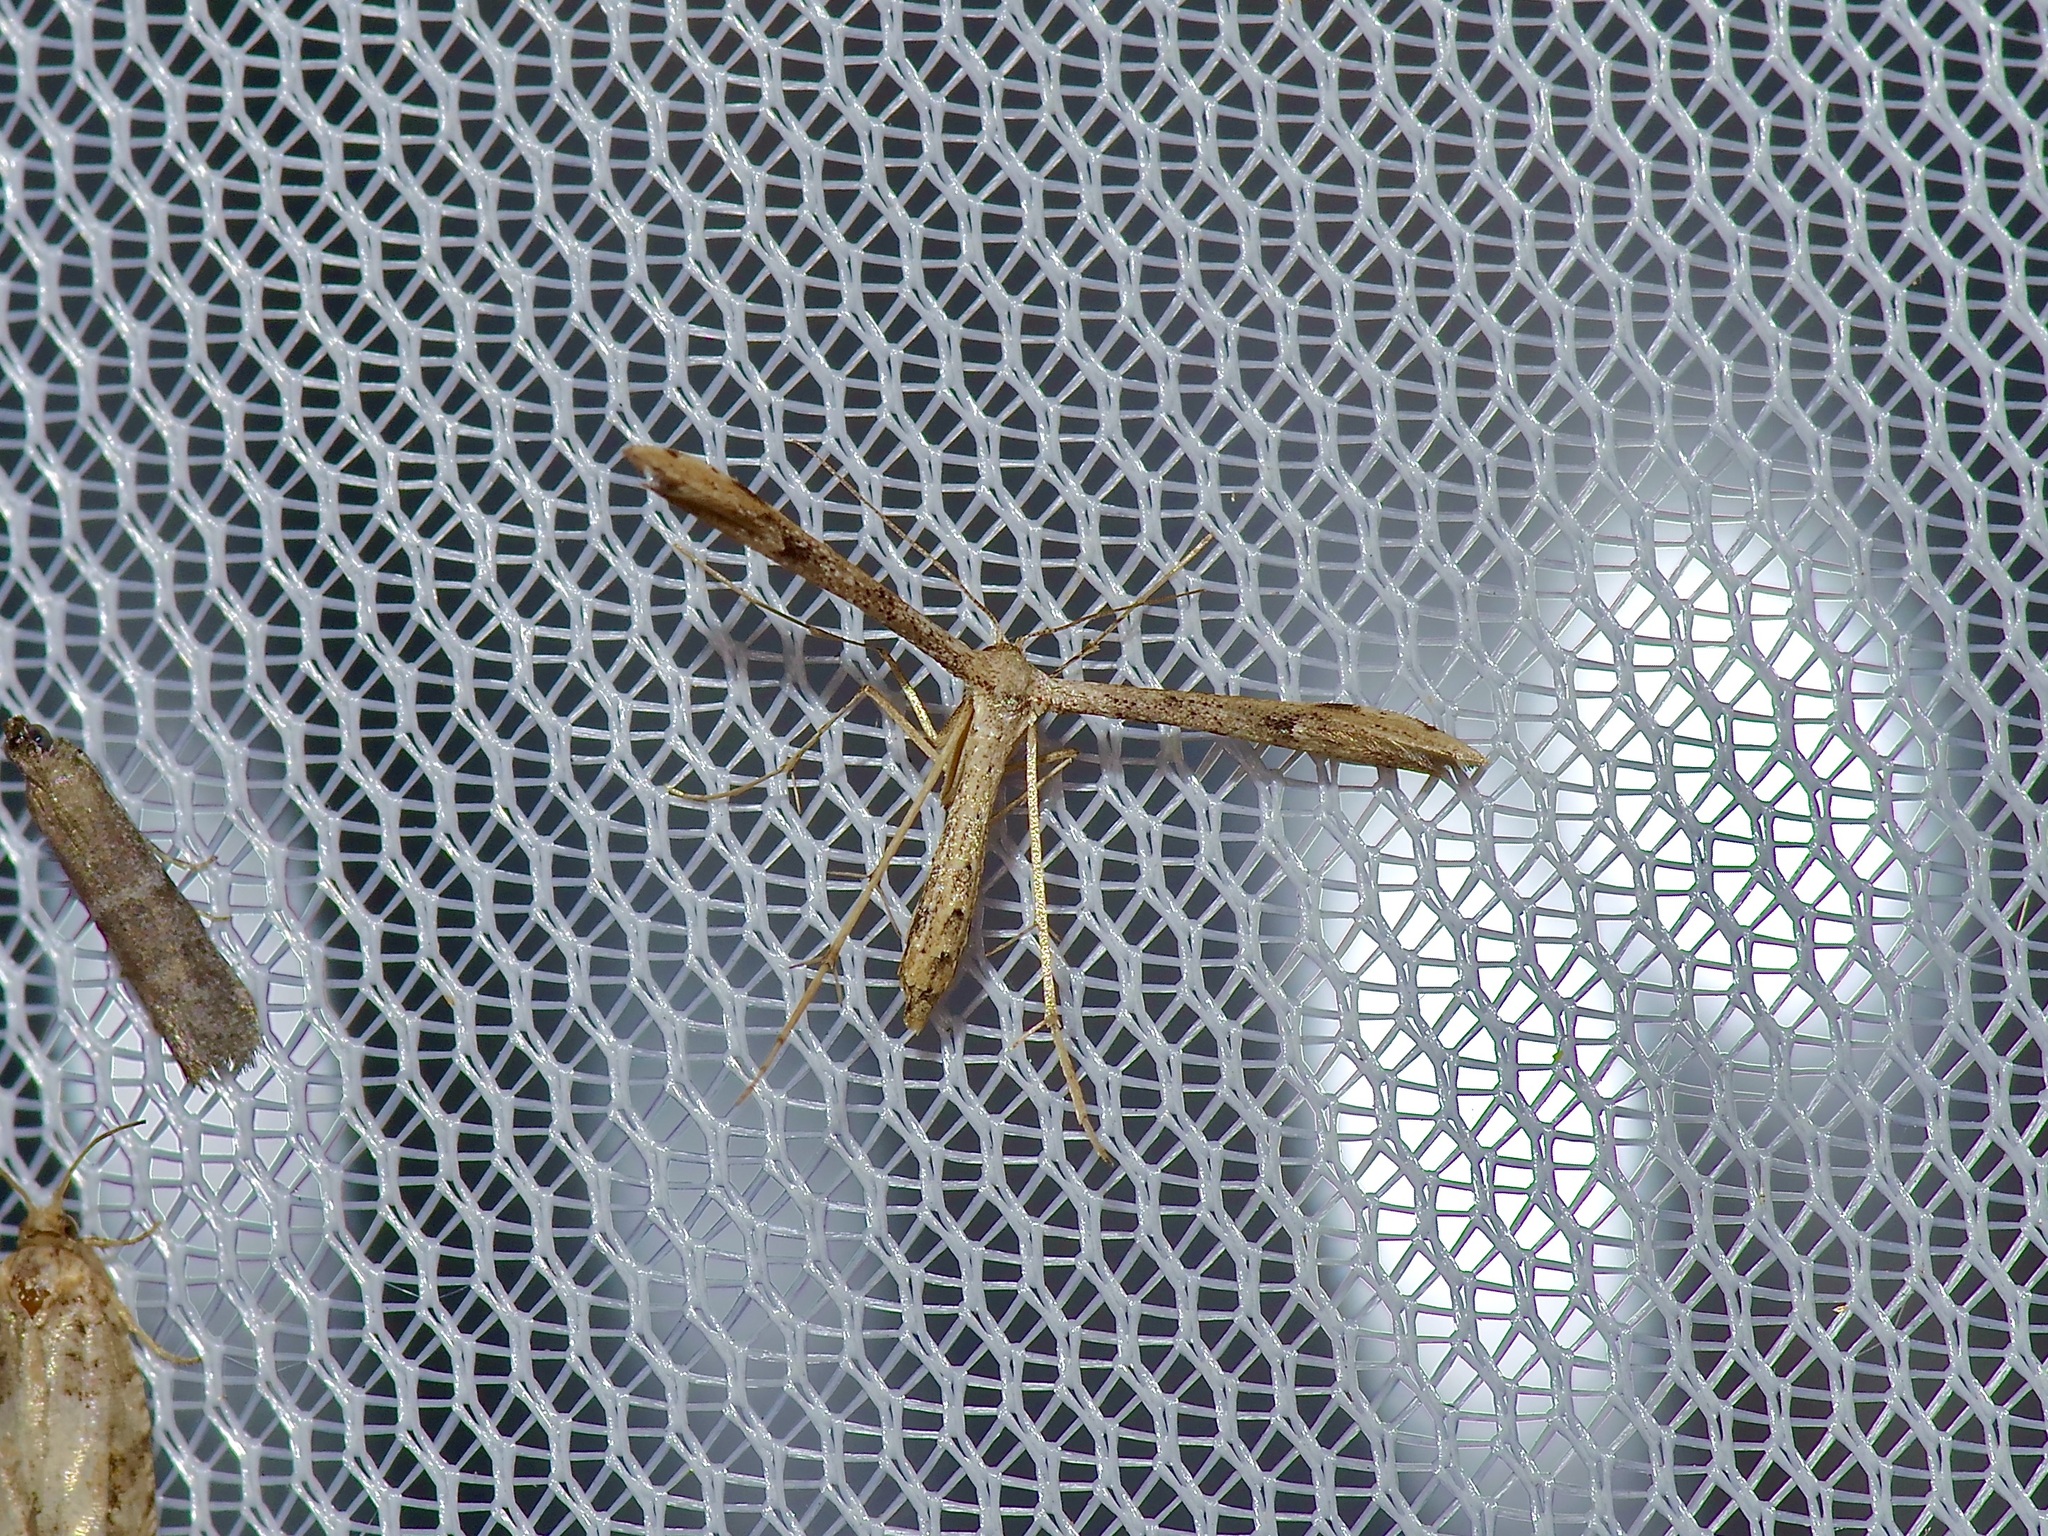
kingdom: Animalia
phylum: Arthropoda
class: Insecta
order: Lepidoptera
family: Pterophoridae
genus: Adaina
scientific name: Adaina ambrosiae
